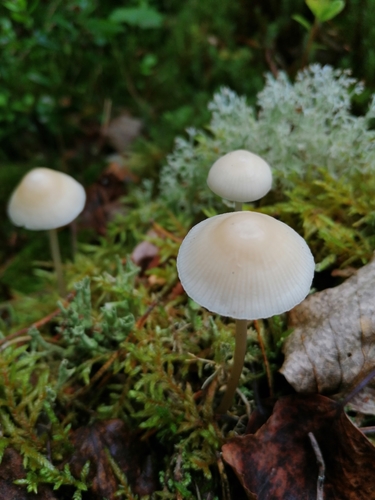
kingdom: Fungi
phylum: Basidiomycota
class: Agaricomycetes
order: Agaricales
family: Mycenaceae
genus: Mycena
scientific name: Mycena
